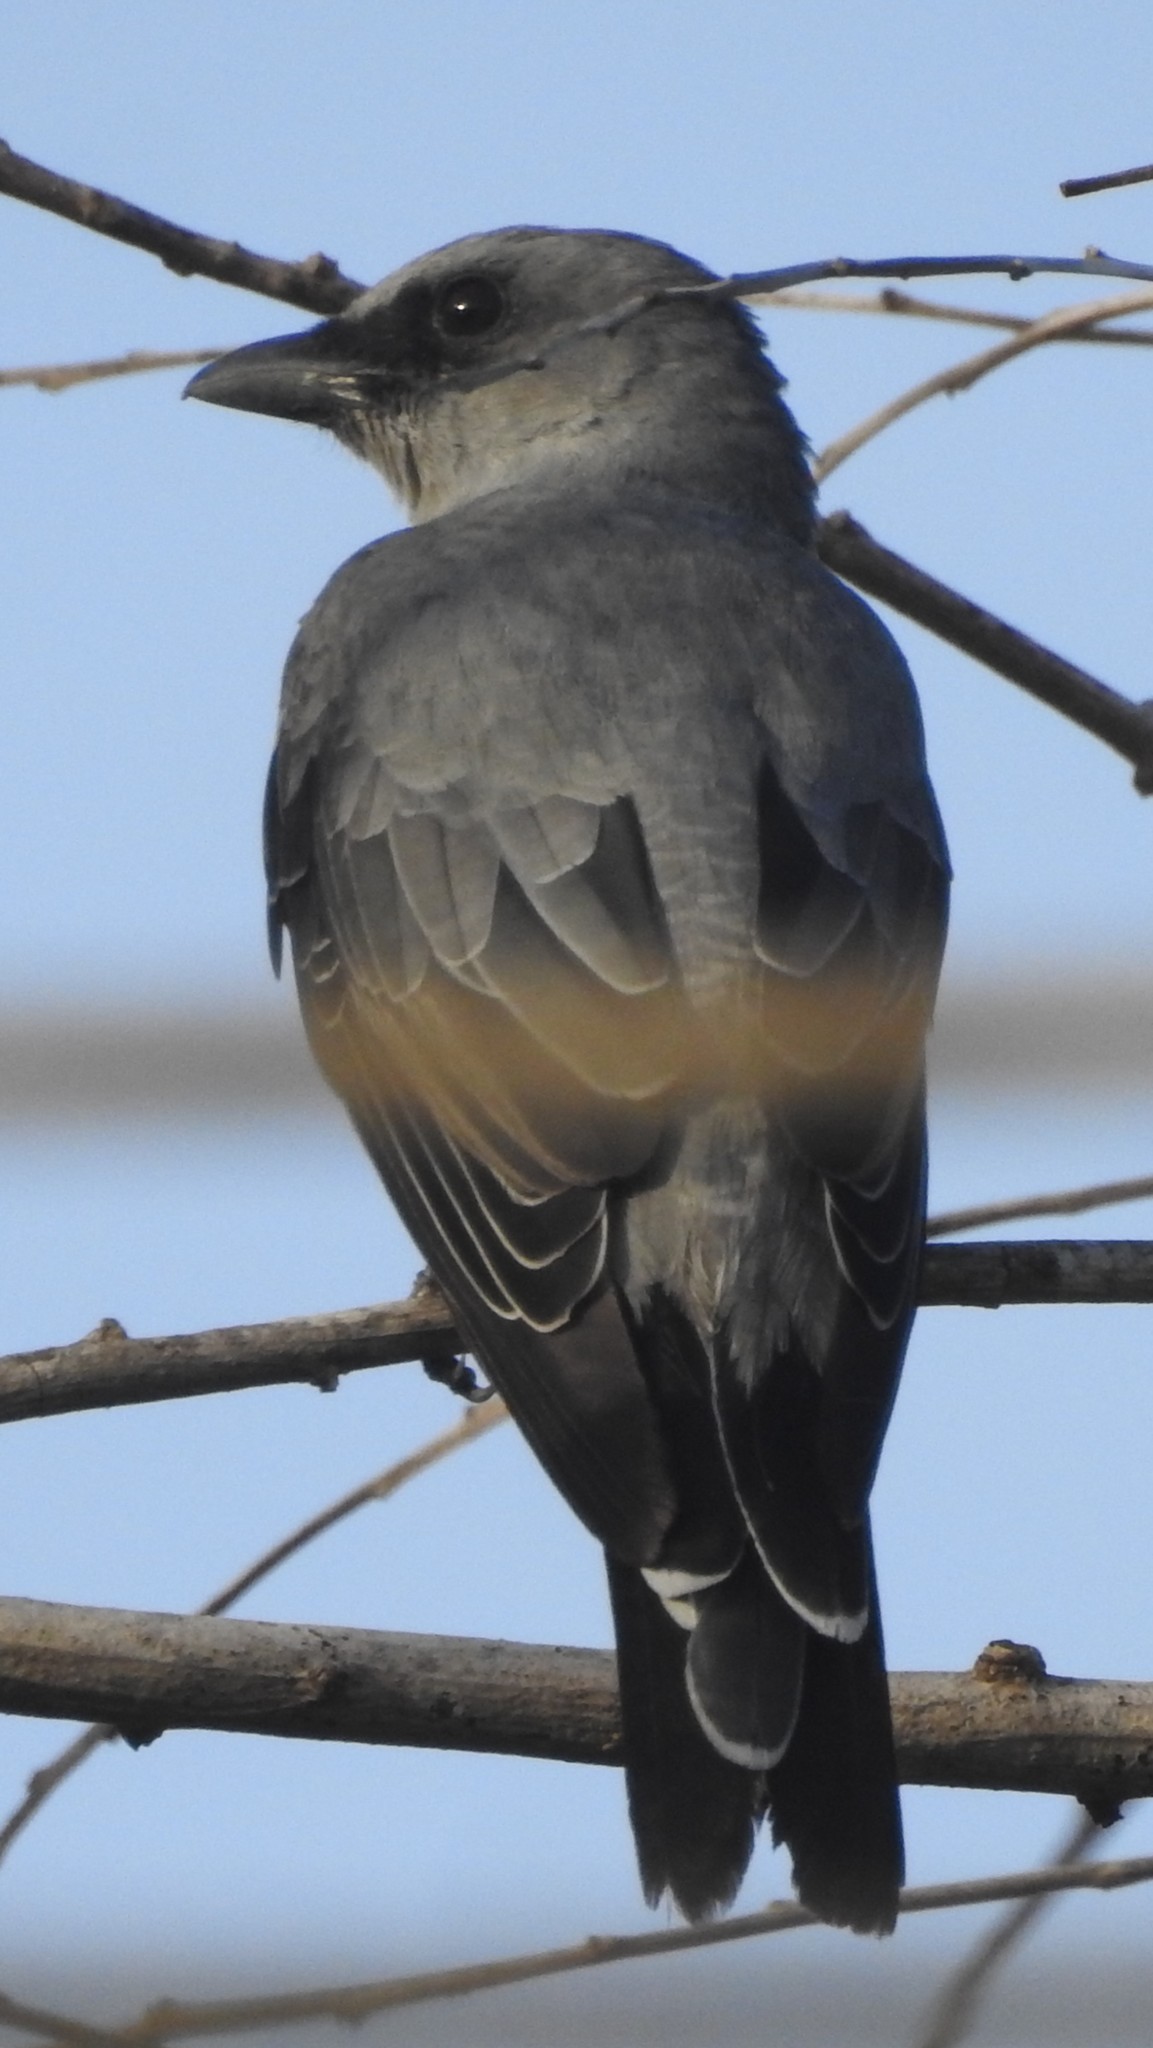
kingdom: Animalia
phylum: Chordata
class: Aves
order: Passeriformes
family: Campephagidae
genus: Coracina
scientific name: Coracina macei
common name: Large cuckooshrike
